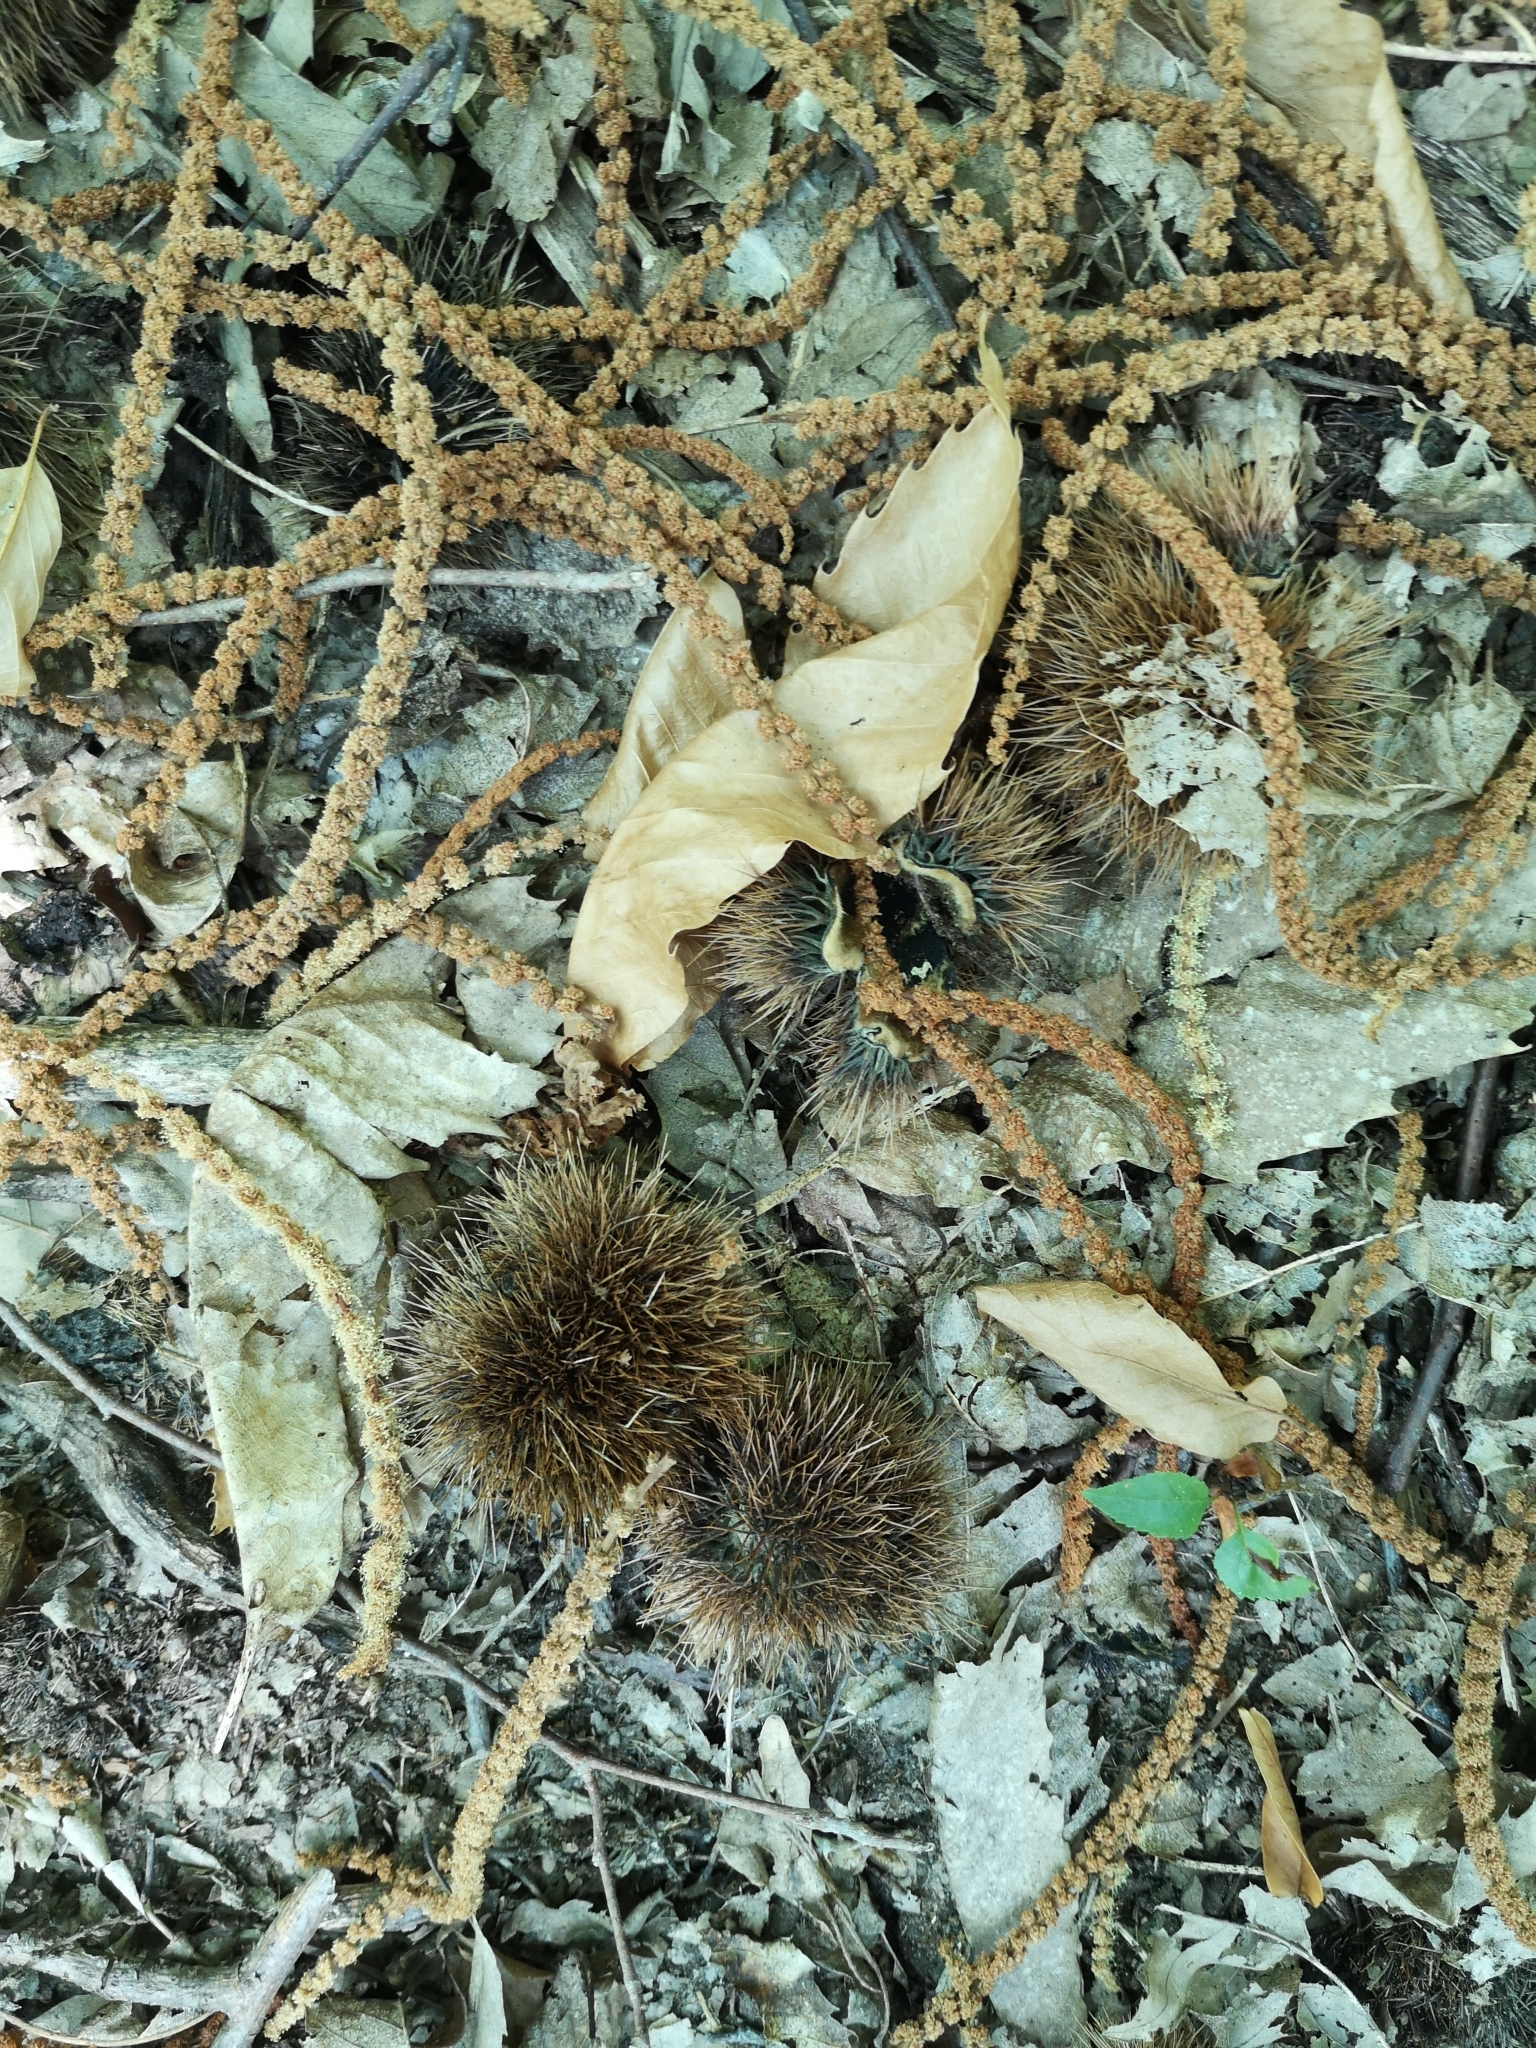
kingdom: Plantae
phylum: Tracheophyta
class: Magnoliopsida
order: Fagales
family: Fagaceae
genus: Castanea
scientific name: Castanea sativa
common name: Sweet chestnut
